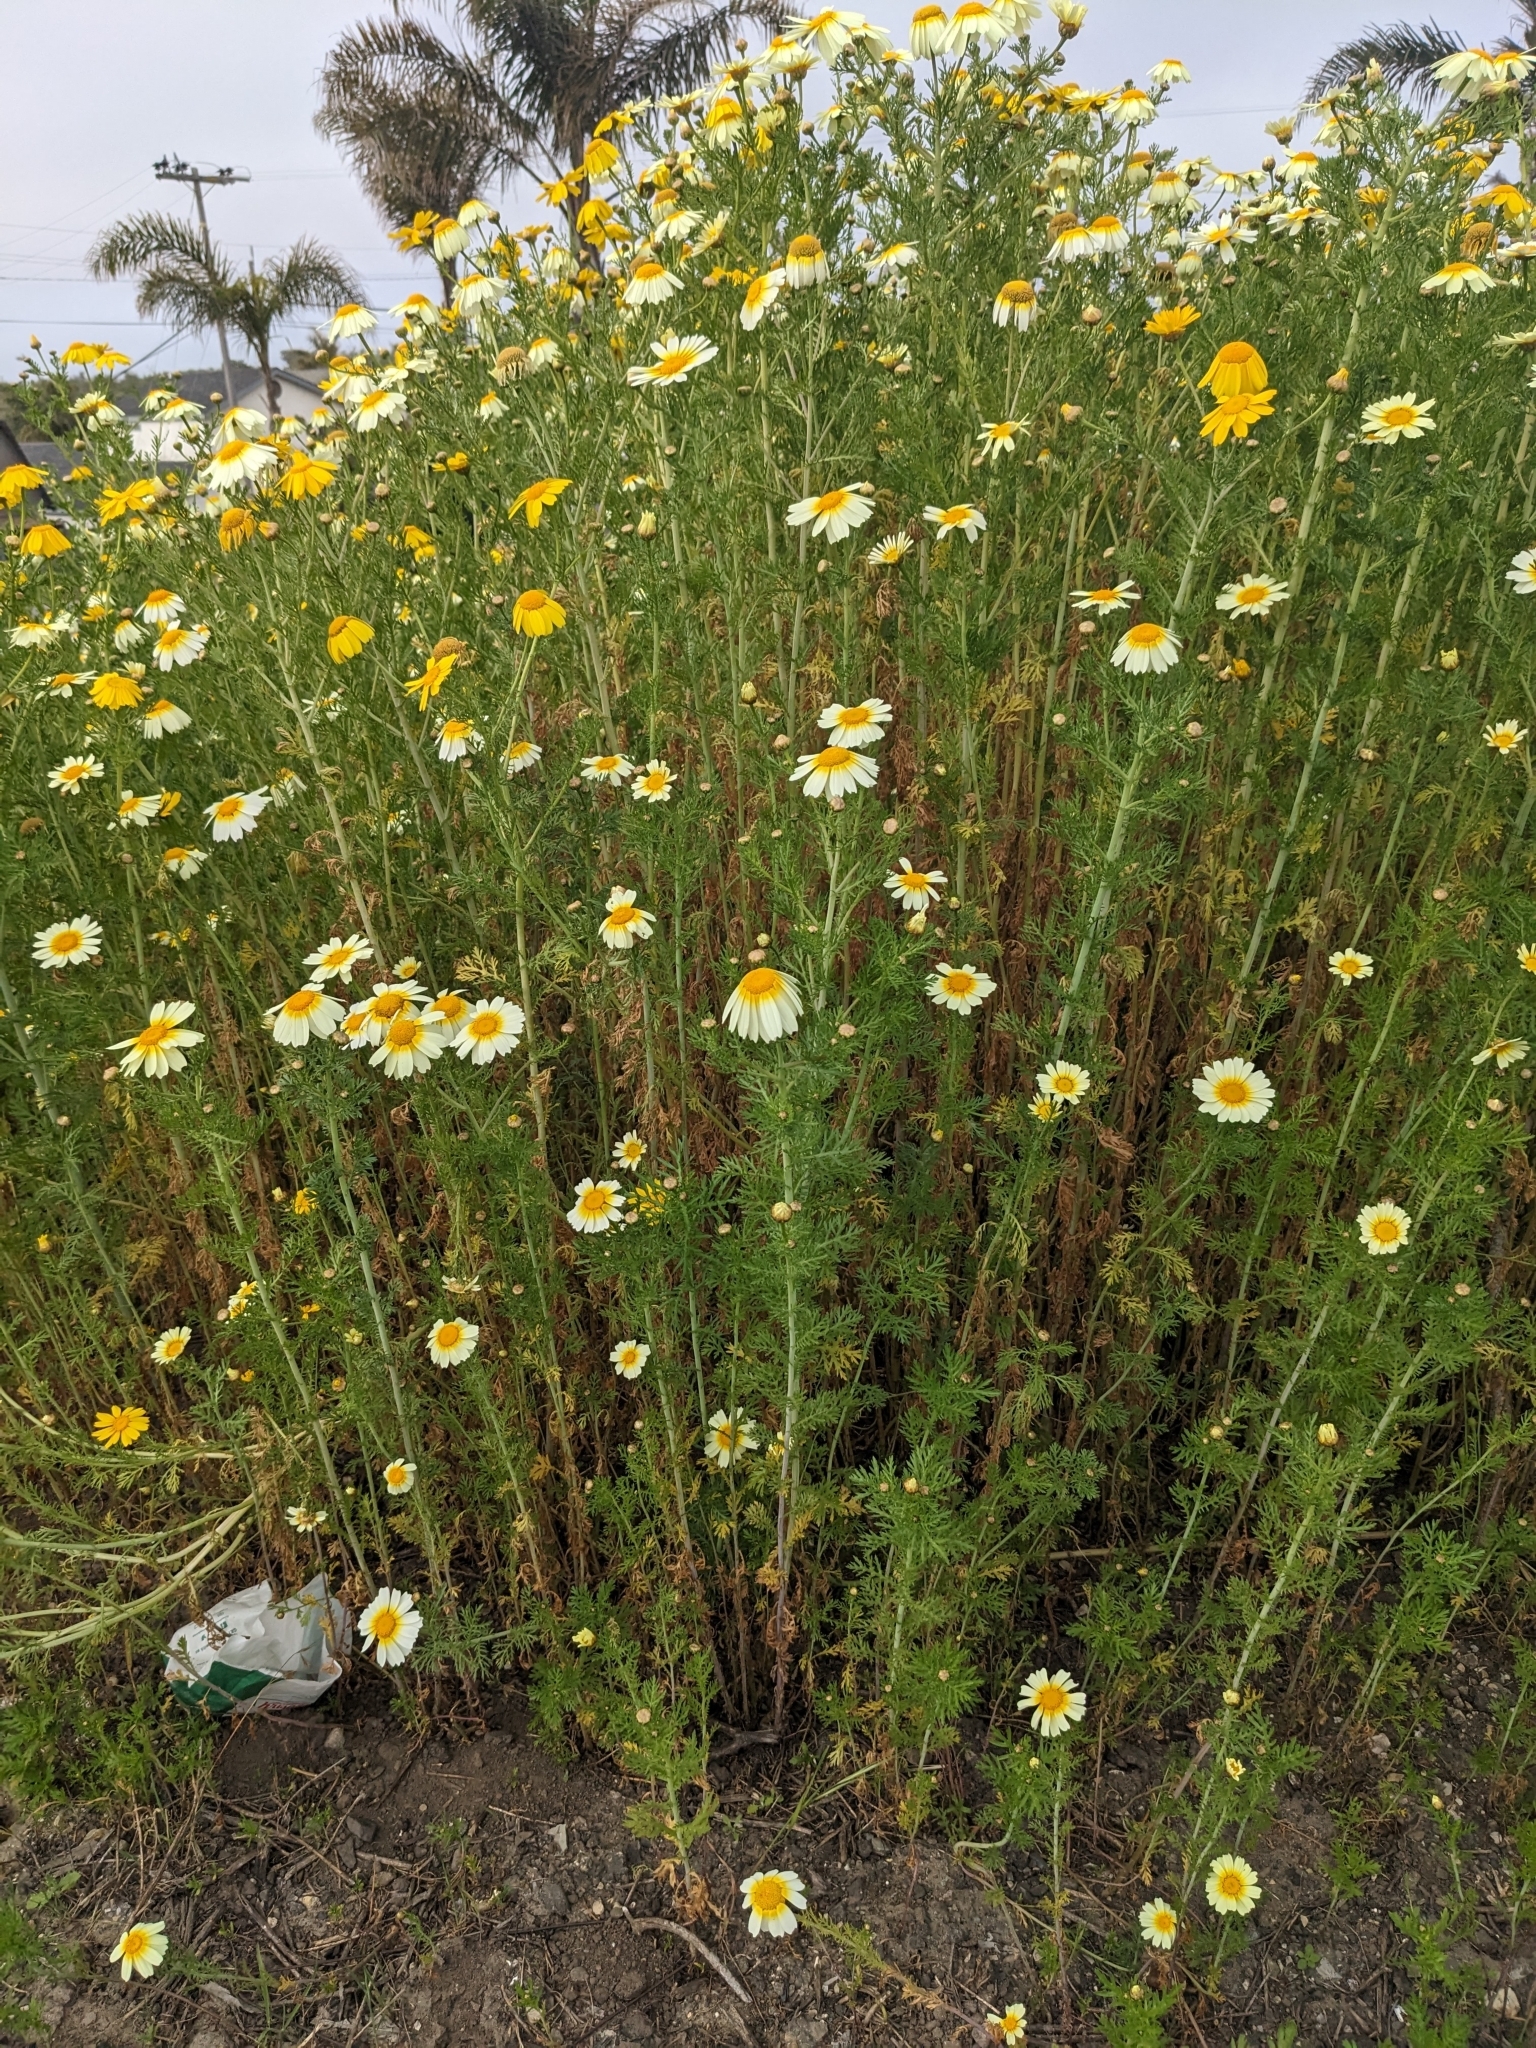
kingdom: Plantae
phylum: Tracheophyta
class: Magnoliopsida
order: Asterales
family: Asteraceae
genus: Glebionis
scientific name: Glebionis coronaria
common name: Crowndaisy
